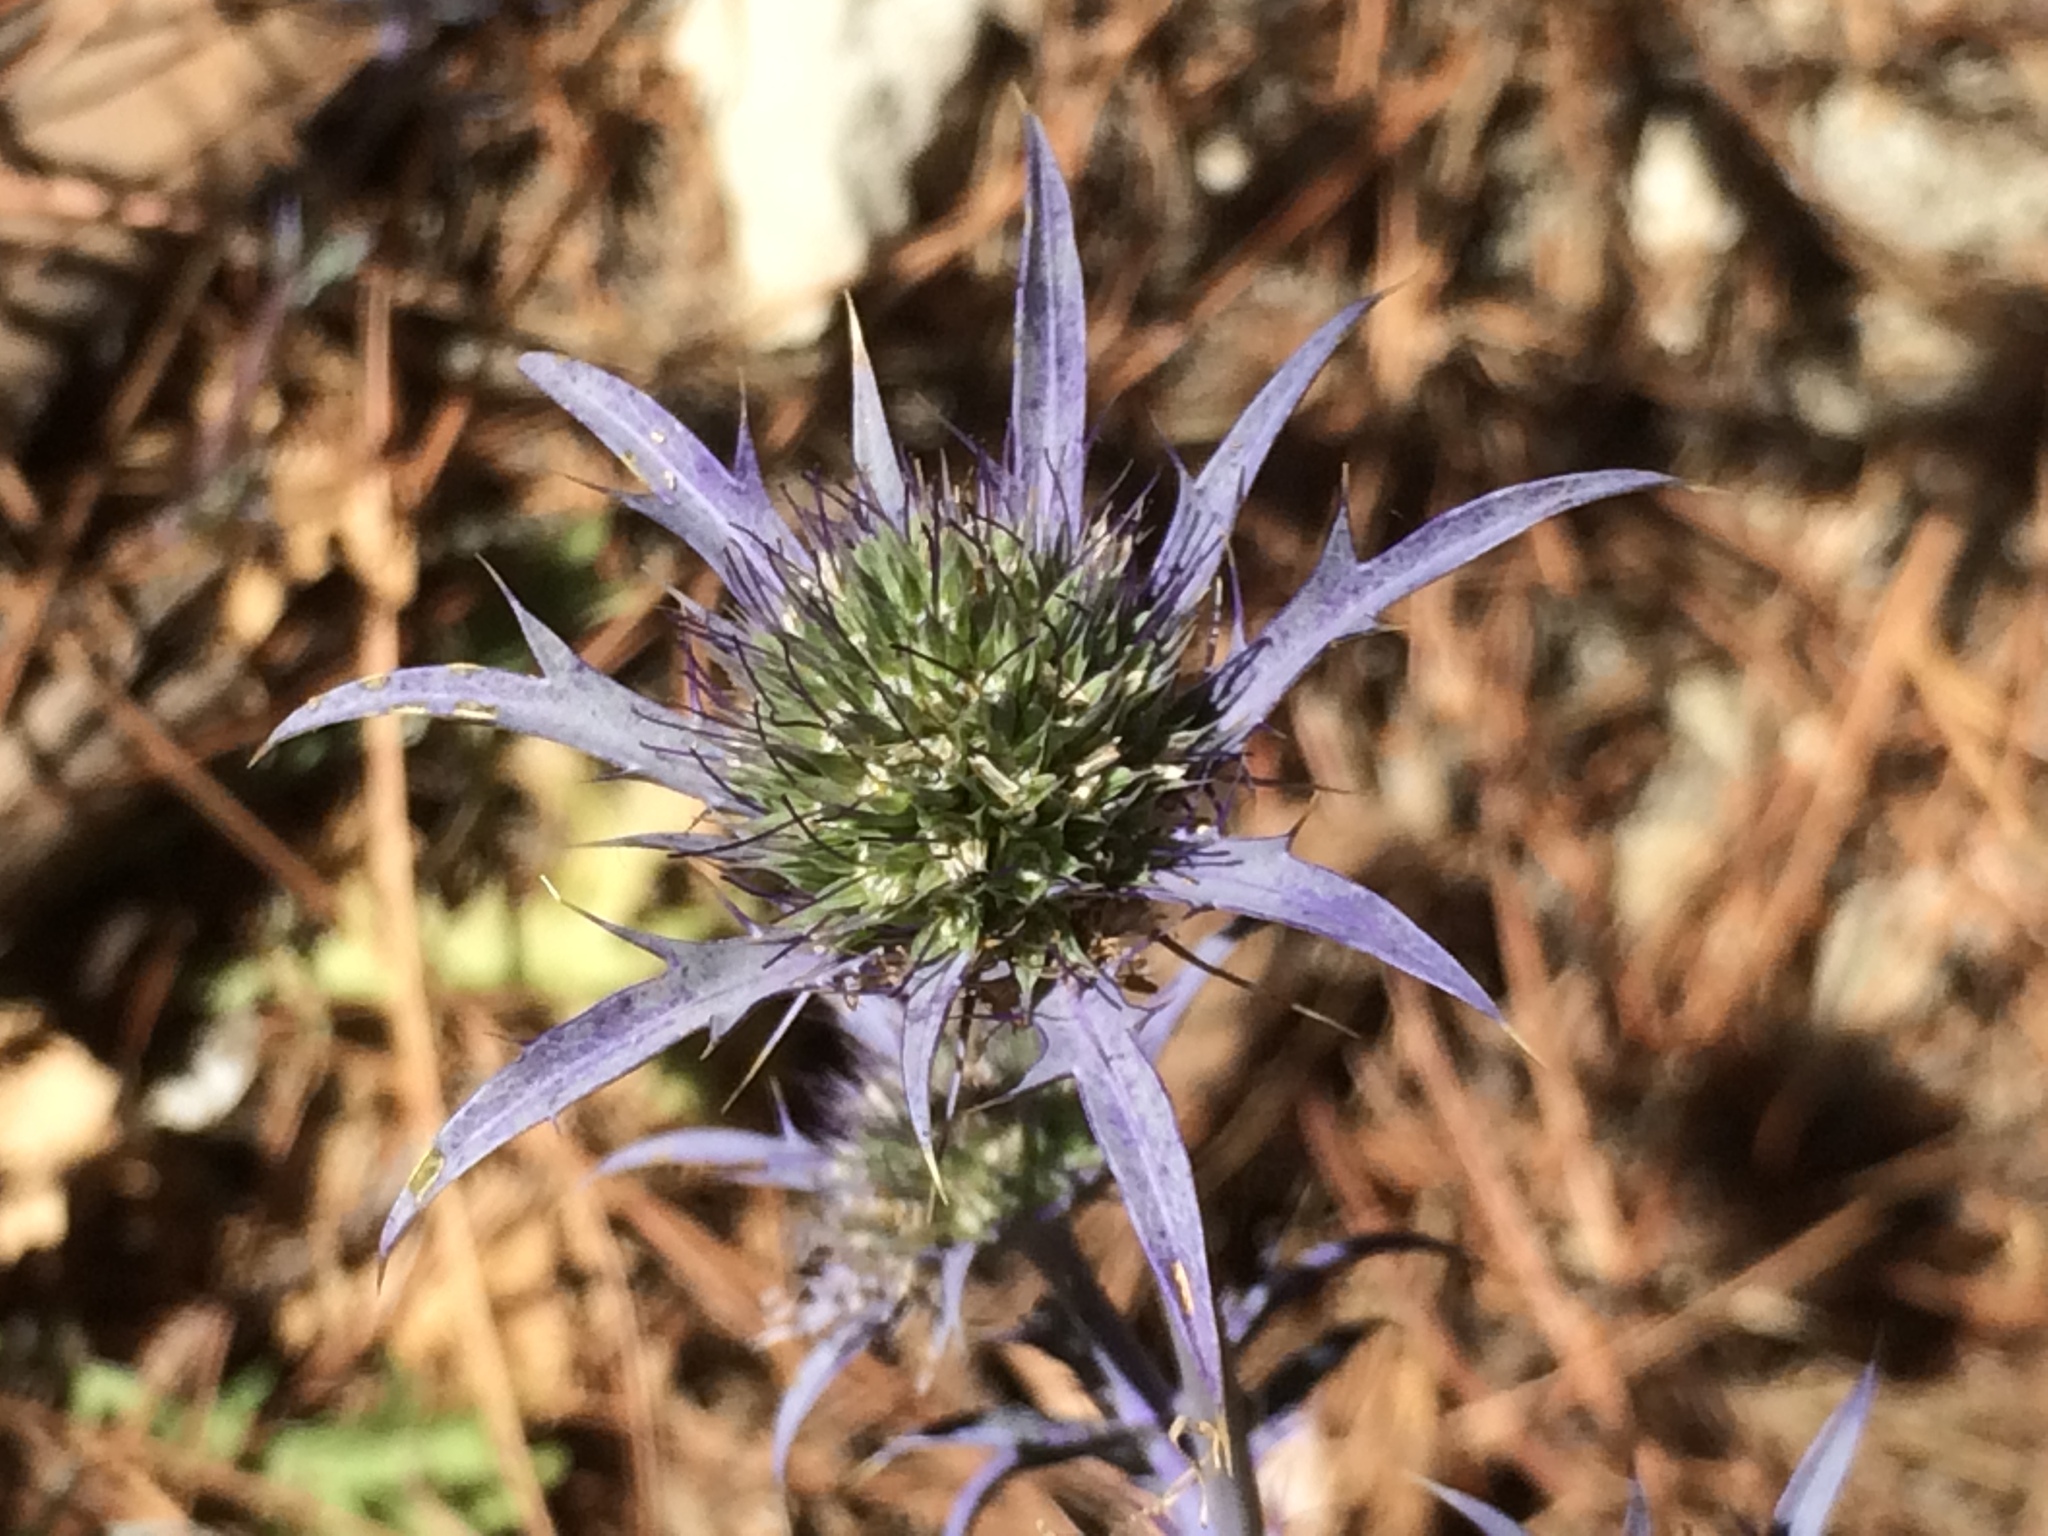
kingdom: Plantae
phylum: Tracheophyta
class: Magnoliopsida
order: Apiales
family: Apiaceae
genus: Eryngium
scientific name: Eryngium dilatatum
